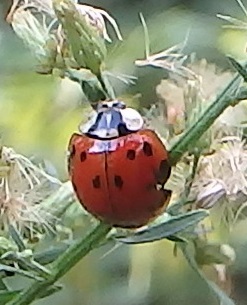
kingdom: Animalia
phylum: Arthropoda
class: Insecta
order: Coleoptera
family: Coccinellidae
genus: Harmonia
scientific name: Harmonia axyridis
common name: Harlequin ladybird
